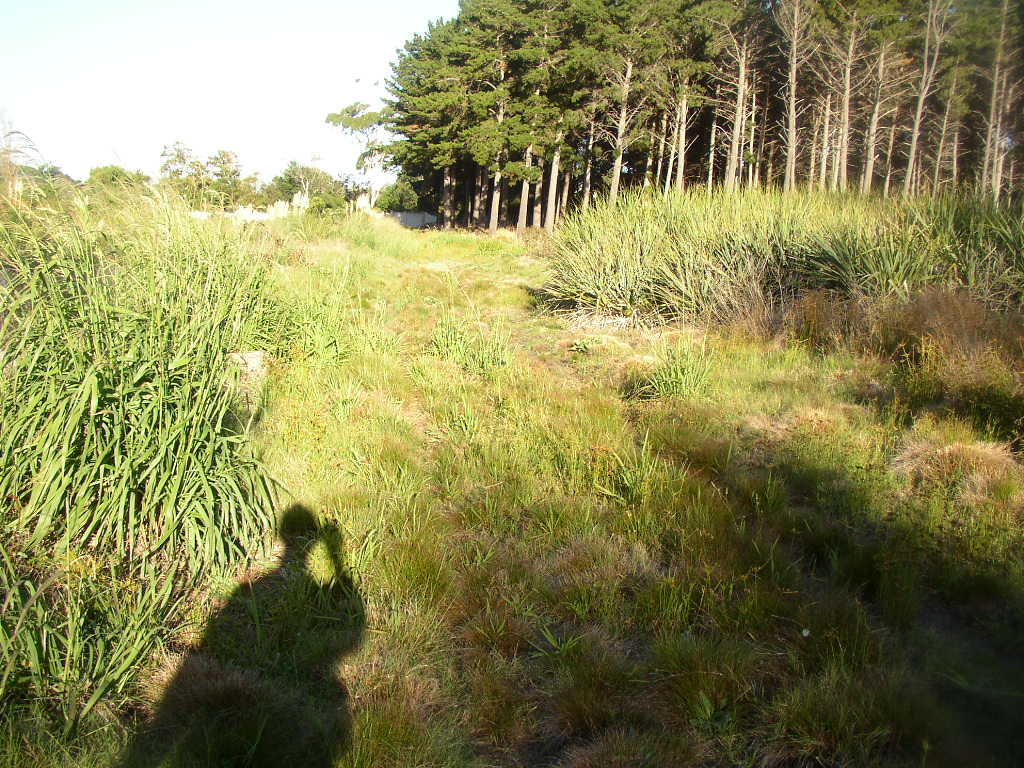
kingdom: Plantae
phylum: Tracheophyta
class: Liliopsida
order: Poales
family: Thurniaceae
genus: Prionium
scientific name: Prionium serratum
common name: Palmiet
